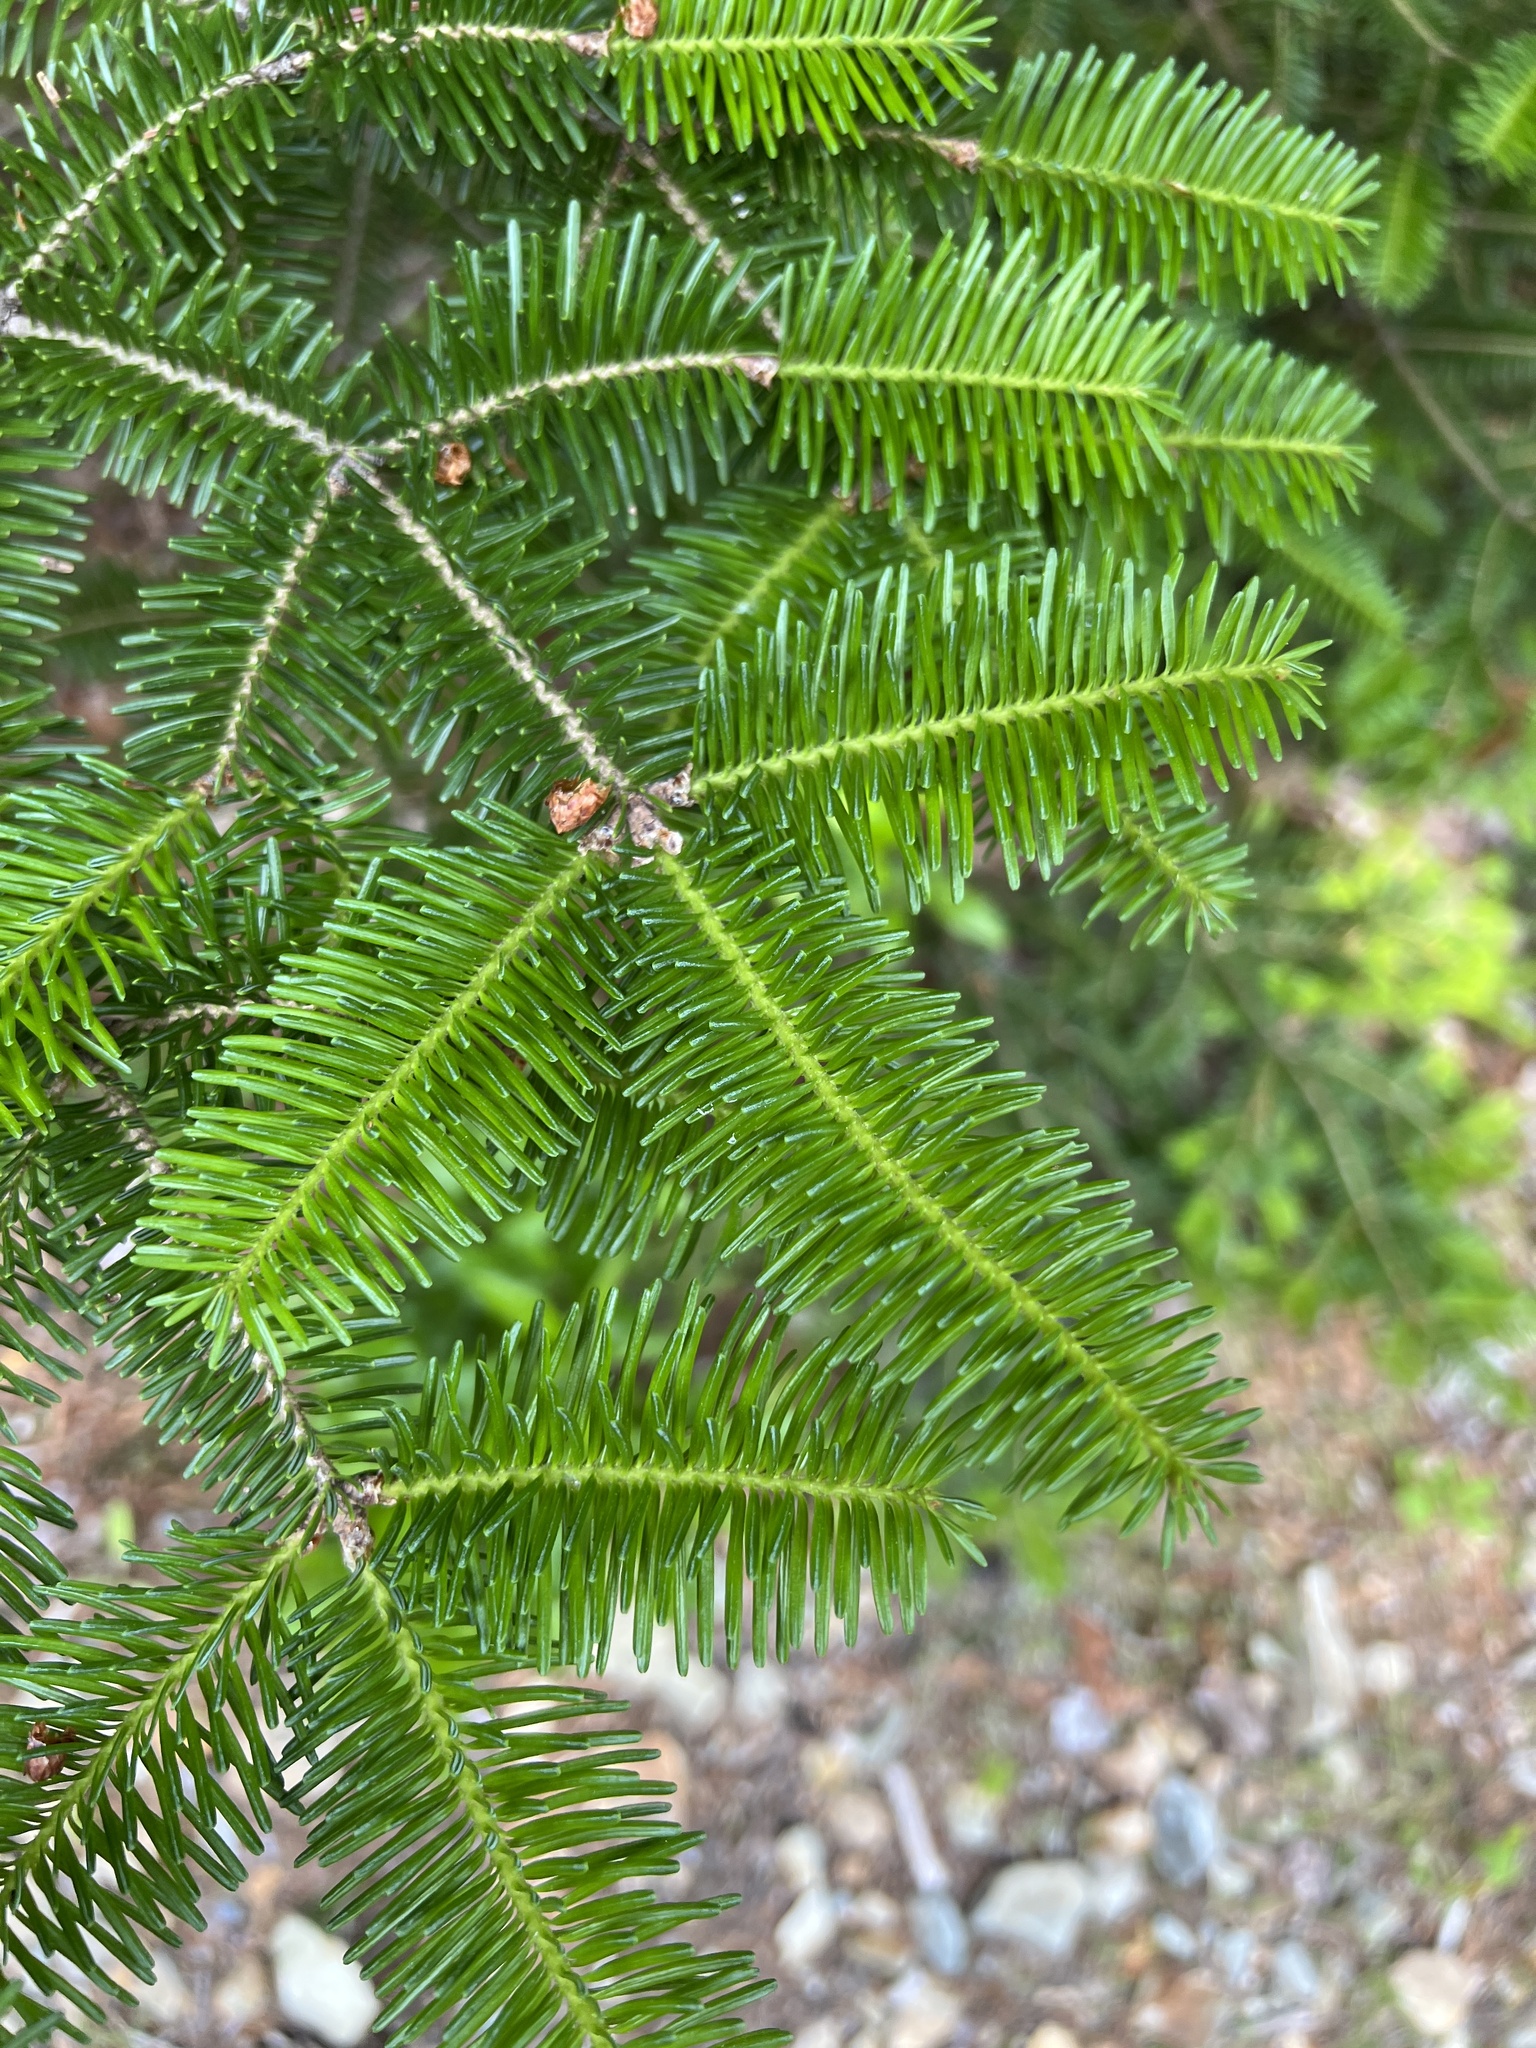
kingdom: Plantae
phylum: Tracheophyta
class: Pinopsida
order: Pinales
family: Pinaceae
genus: Abies
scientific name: Abies balsamea
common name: Balsam fir
